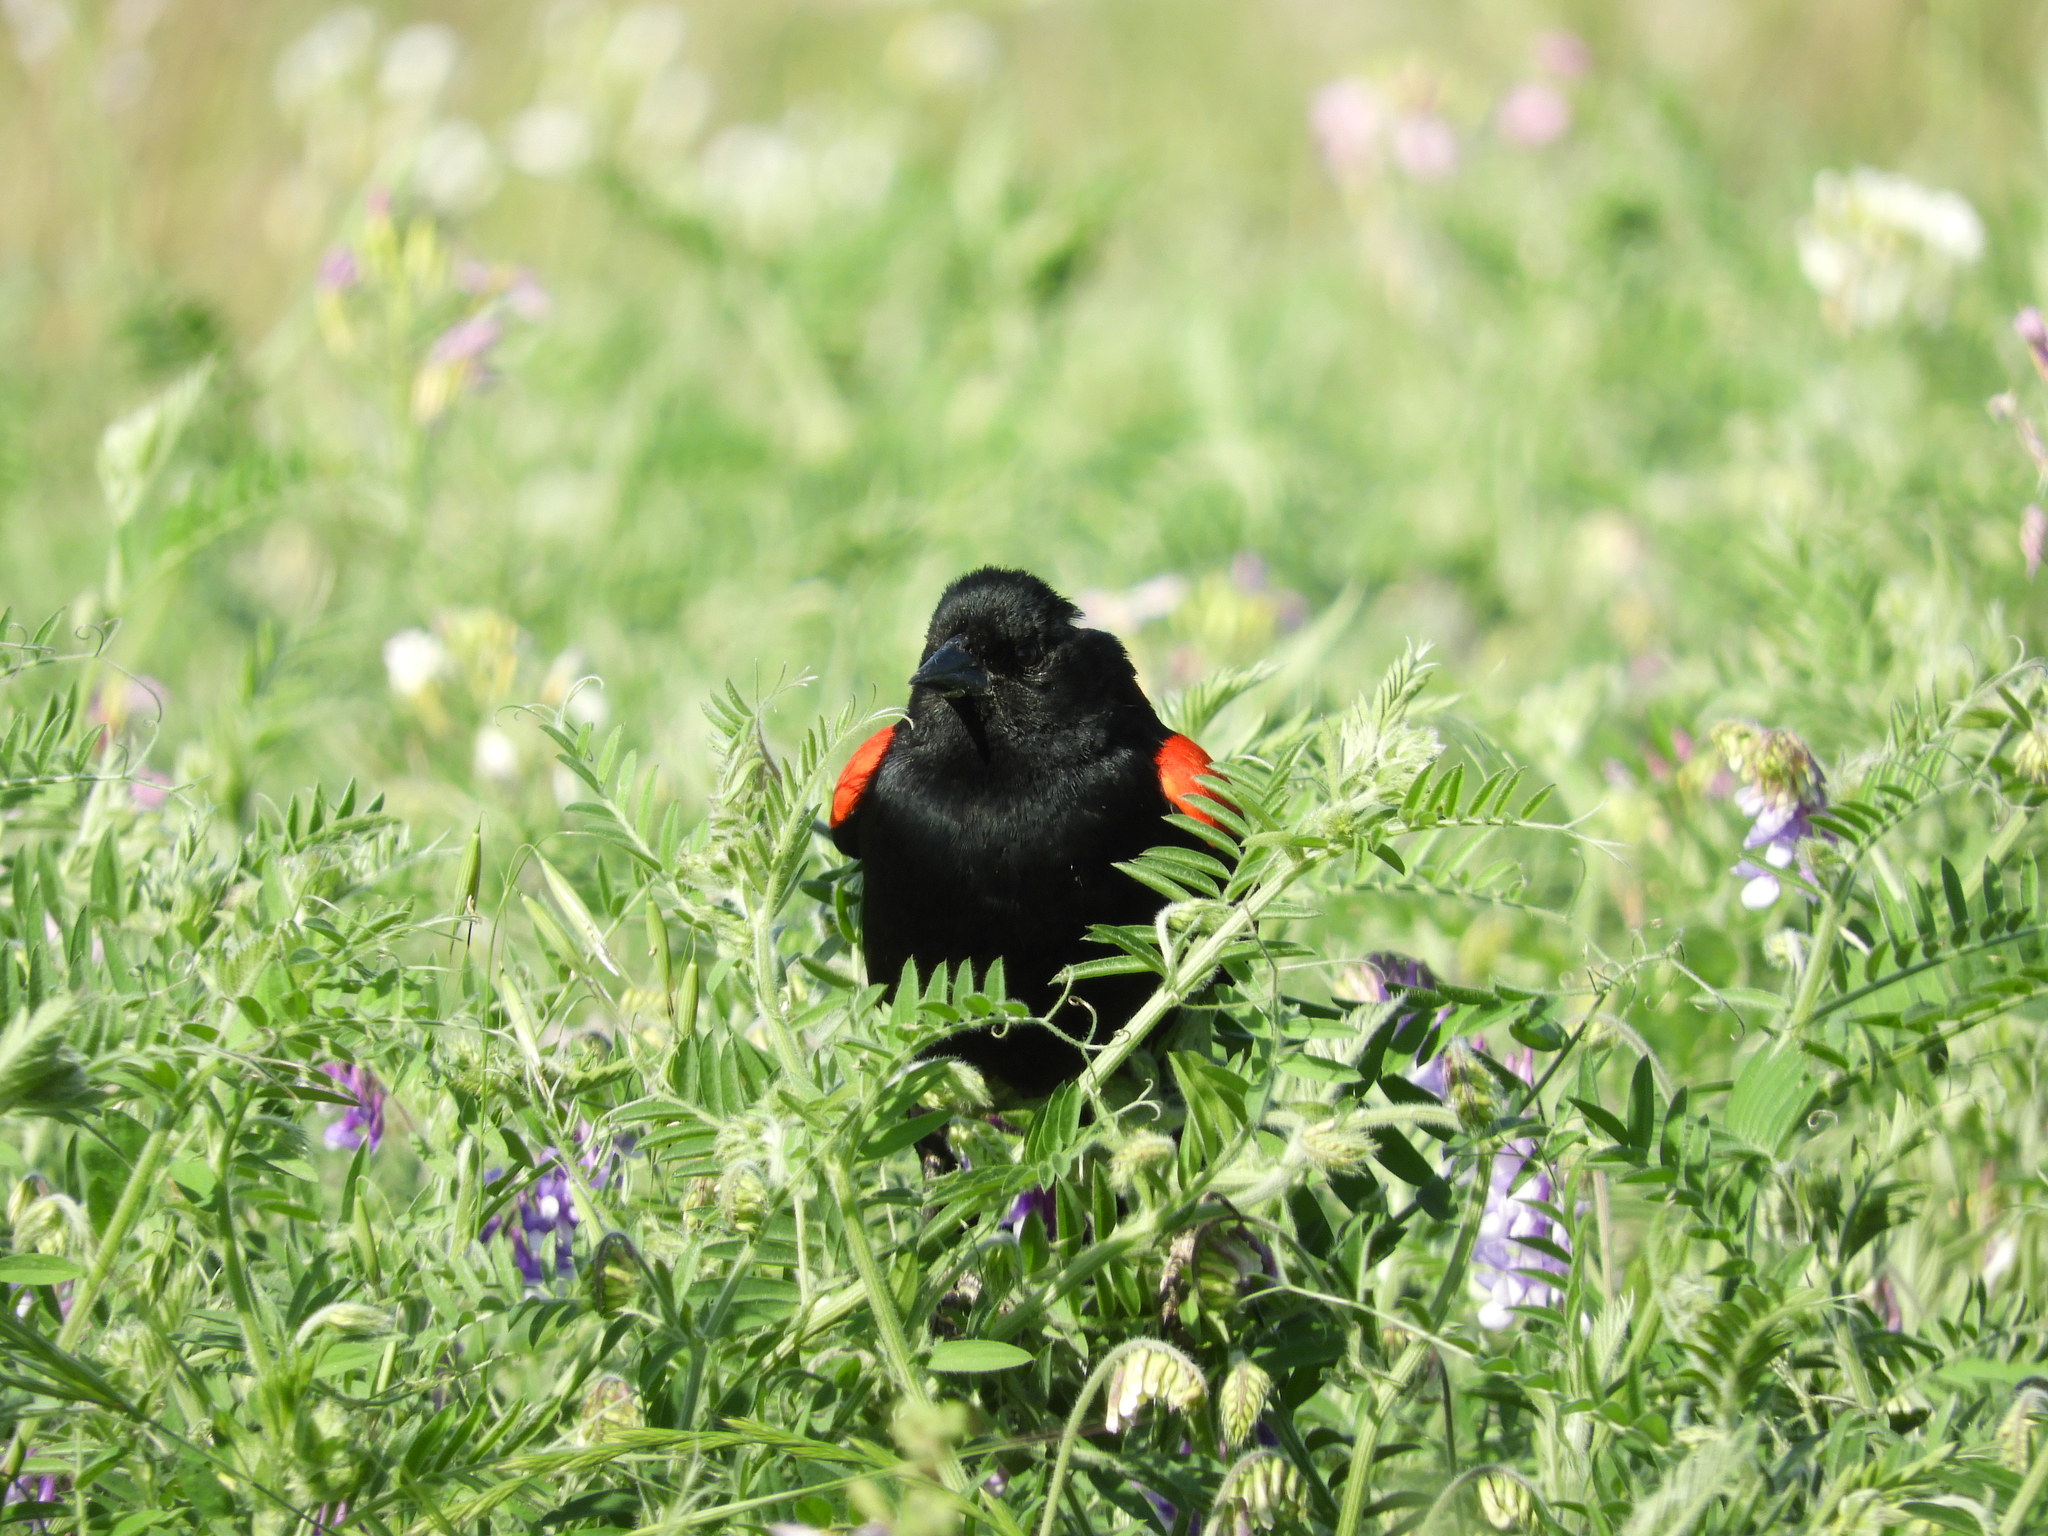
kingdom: Animalia
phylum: Chordata
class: Aves
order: Passeriformes
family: Icteridae
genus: Agelaius
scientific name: Agelaius phoeniceus
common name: Red-winged blackbird
